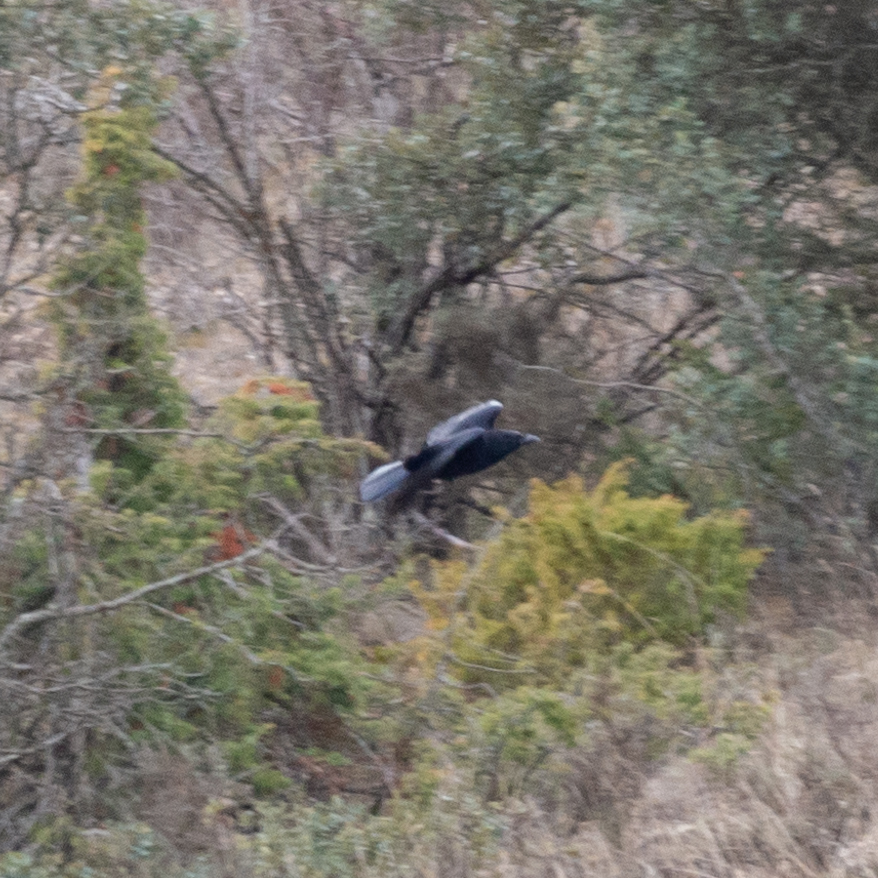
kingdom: Animalia
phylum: Chordata
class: Aves
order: Passeriformes
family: Corvidae
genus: Corvus
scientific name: Corvus corone
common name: Carrion crow
